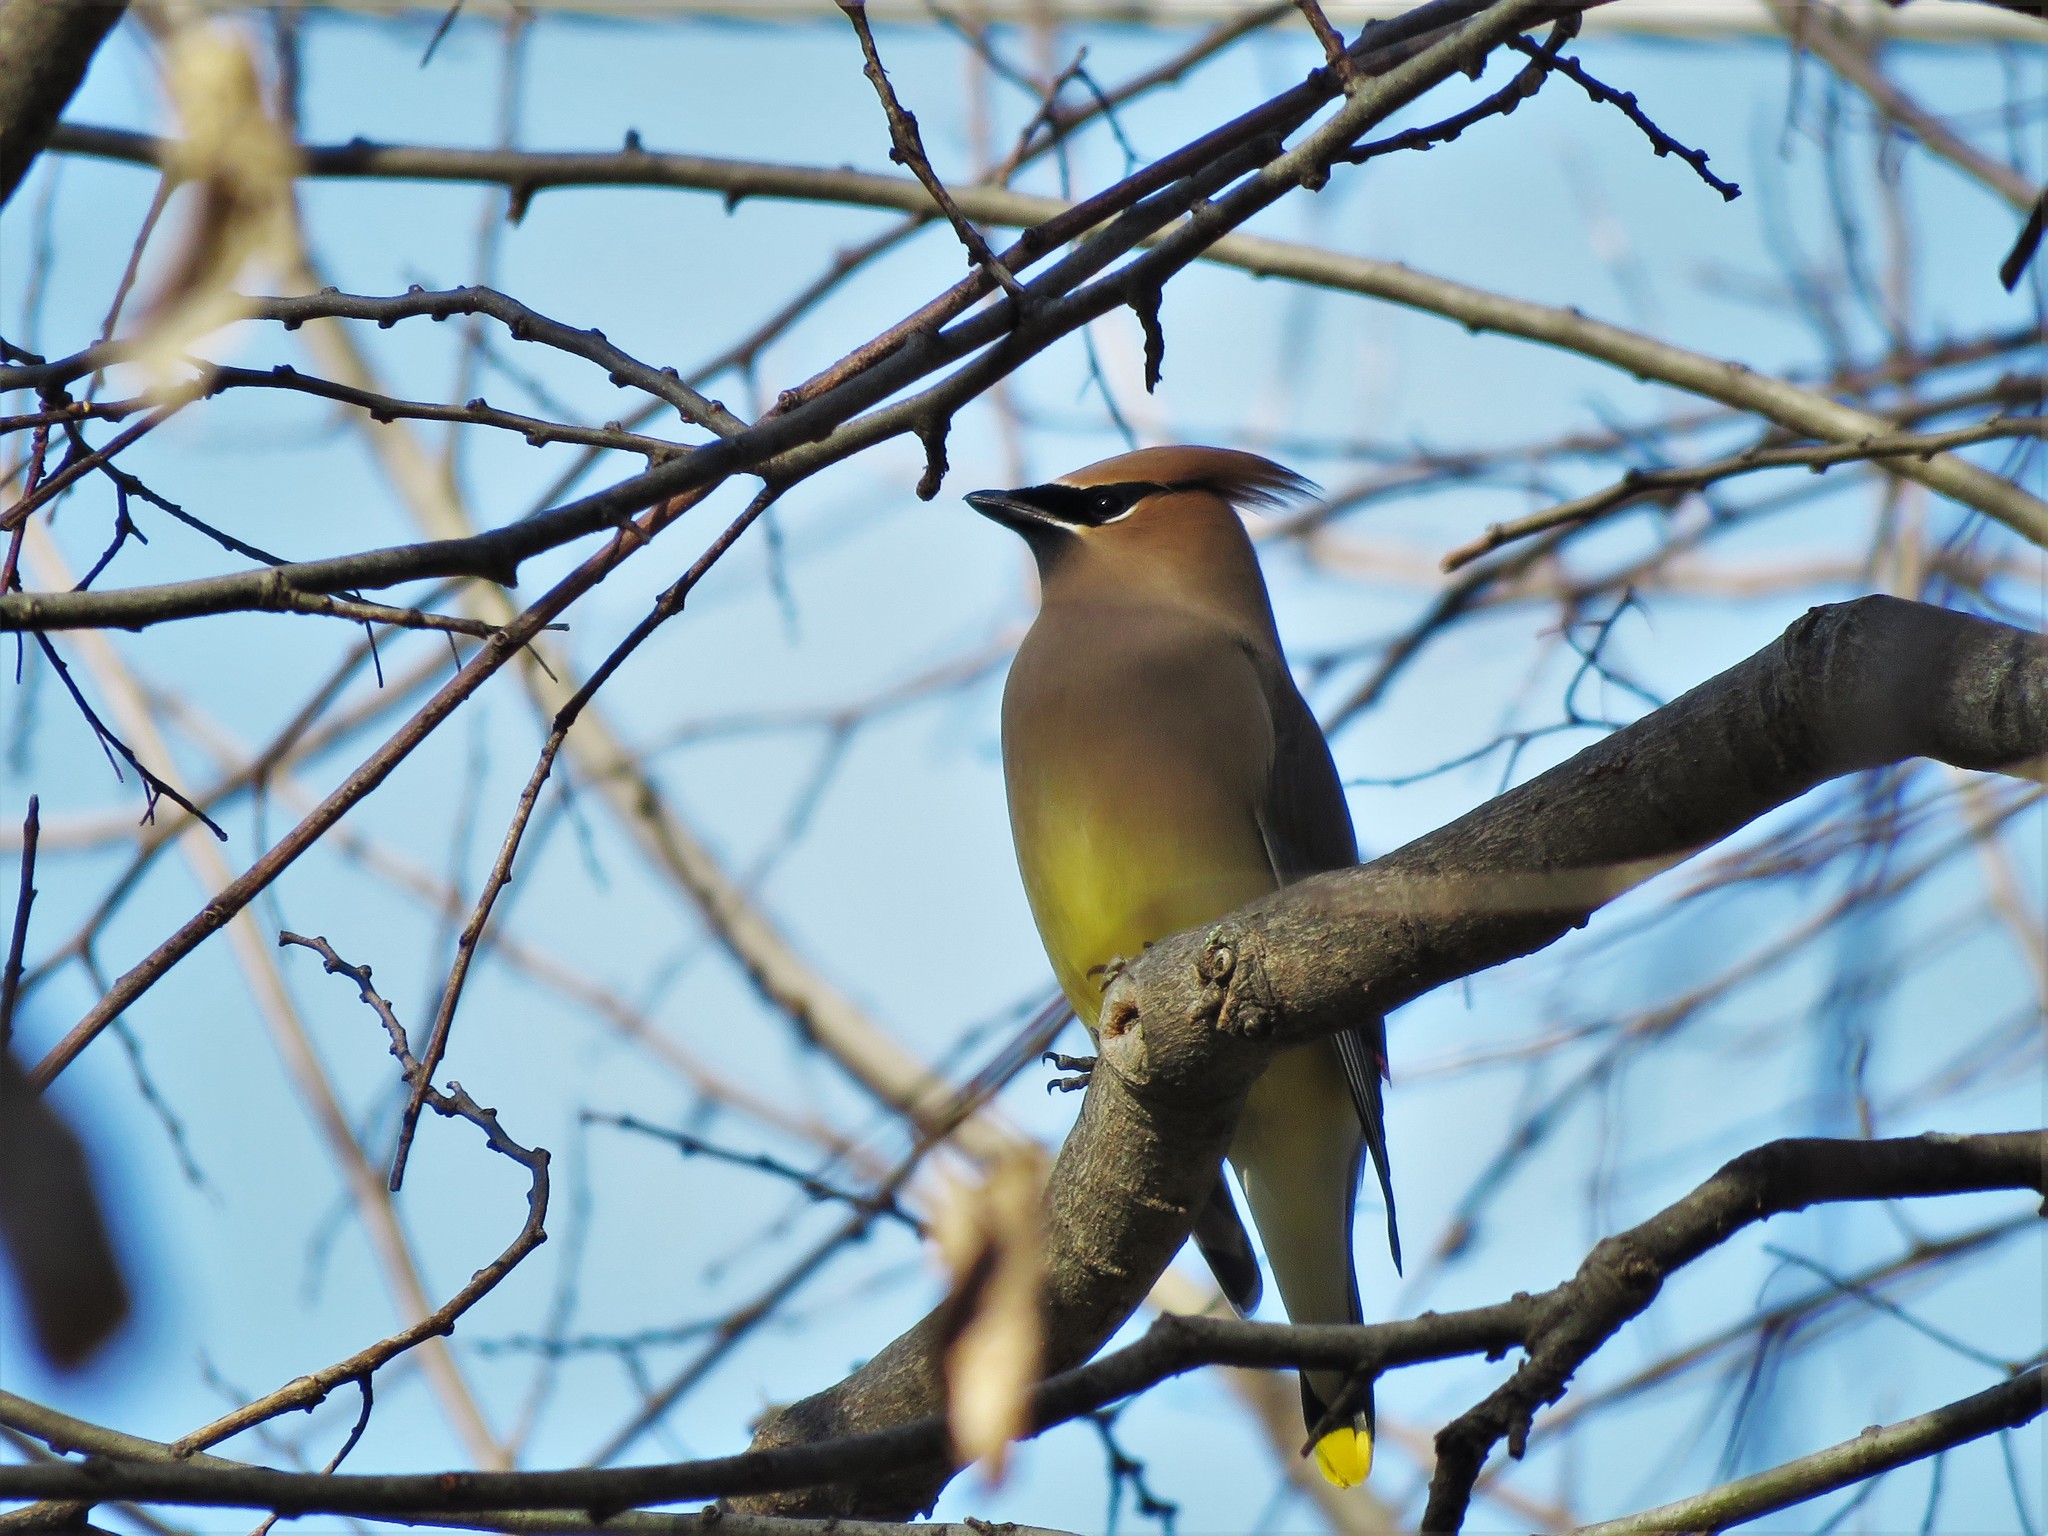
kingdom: Animalia
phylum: Chordata
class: Aves
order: Passeriformes
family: Bombycillidae
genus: Bombycilla
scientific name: Bombycilla cedrorum
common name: Cedar waxwing
